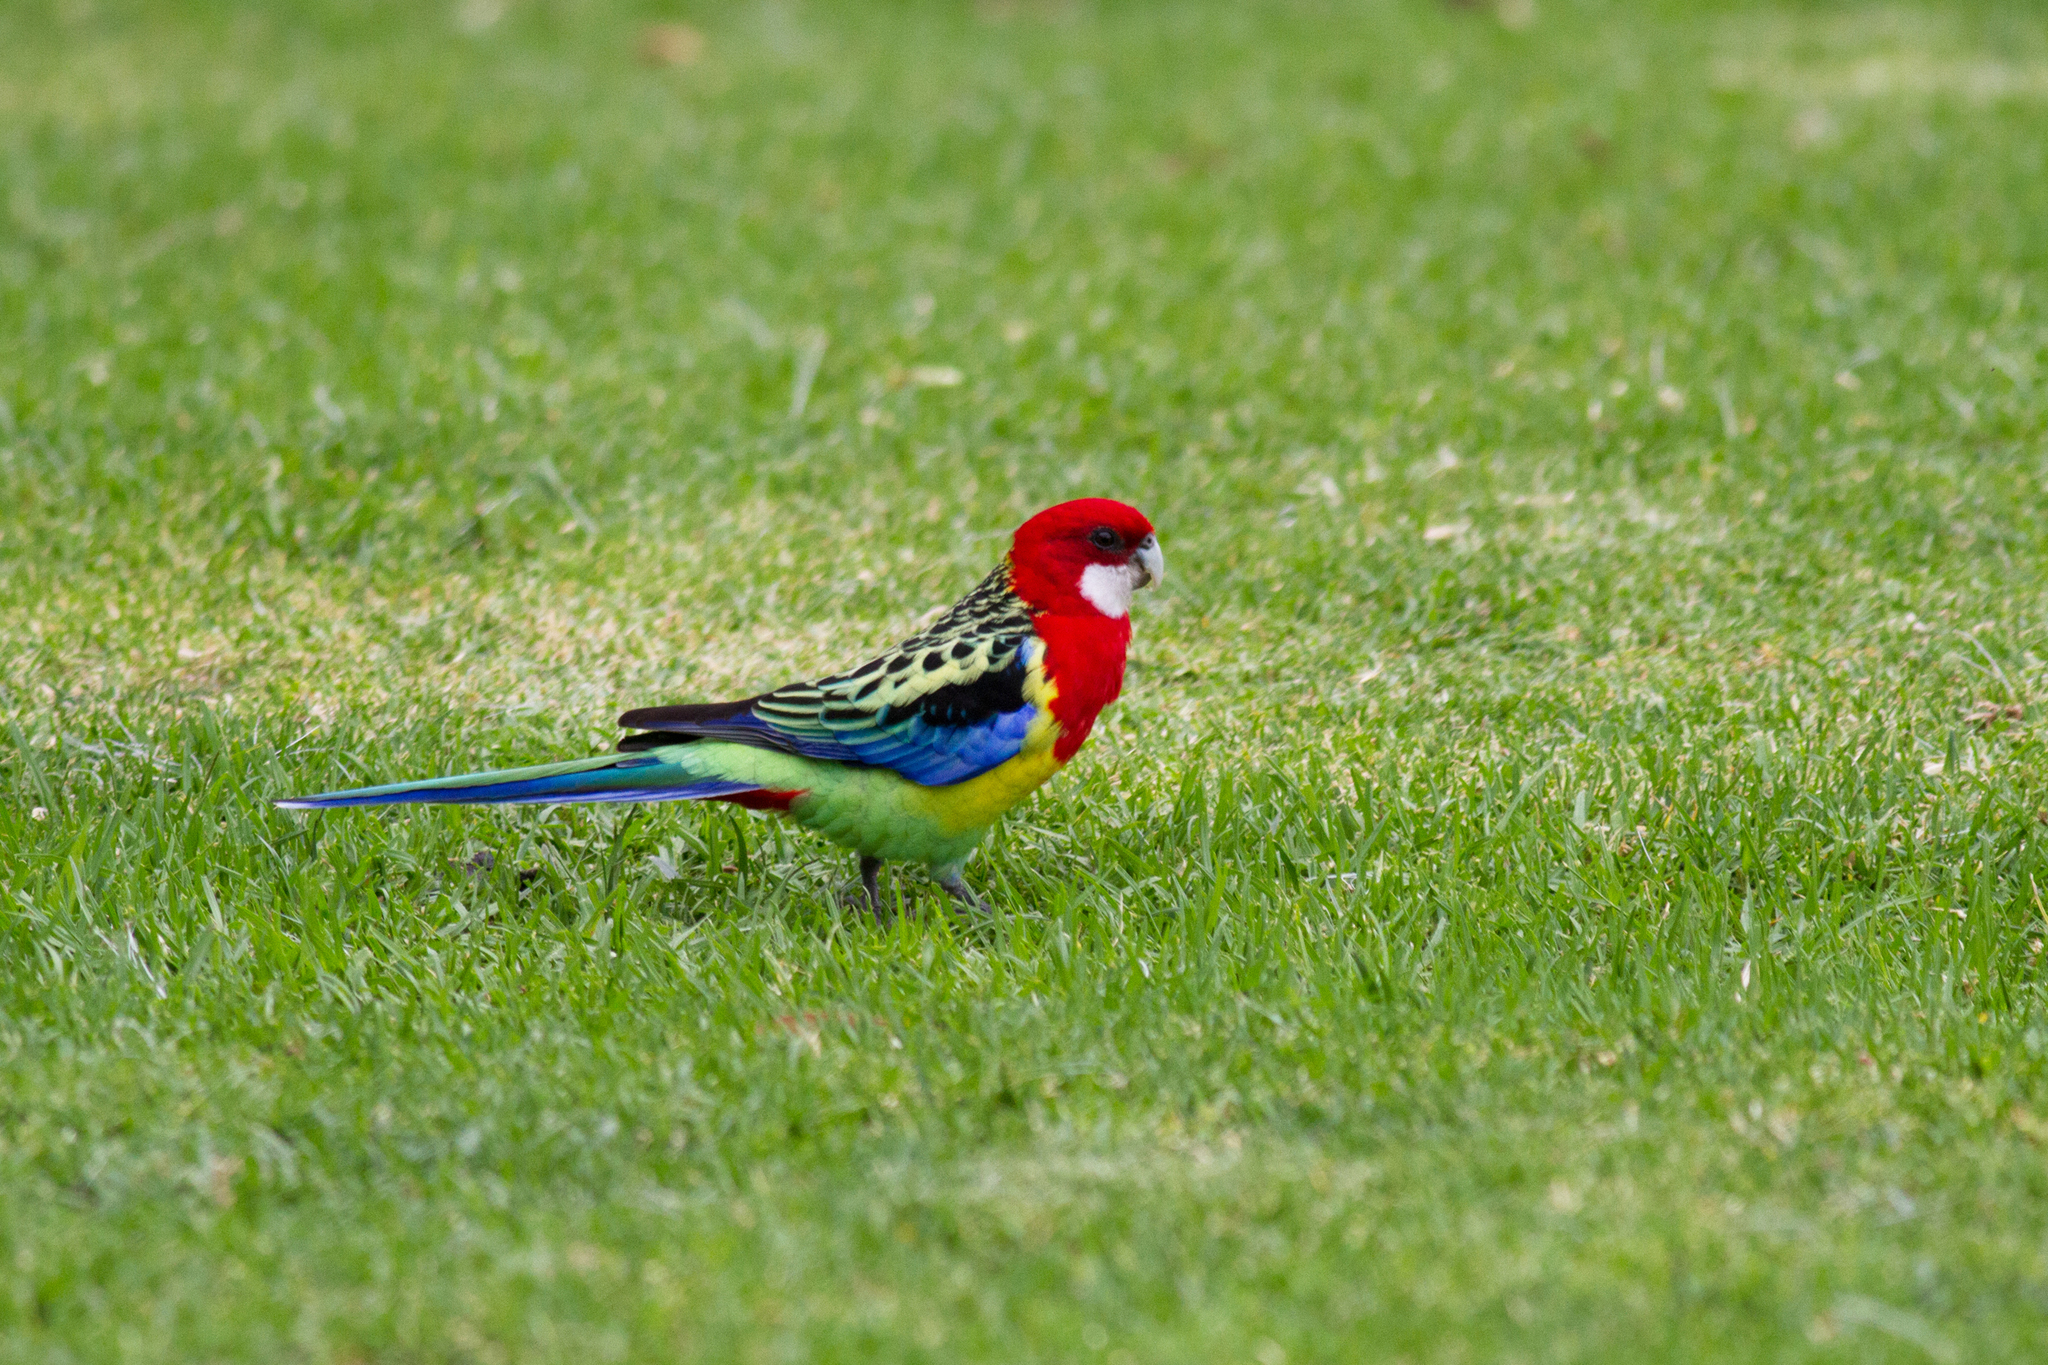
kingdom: Animalia
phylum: Chordata
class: Aves
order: Psittaciformes
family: Psittacidae
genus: Platycercus
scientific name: Platycercus eximius
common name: Eastern rosella
